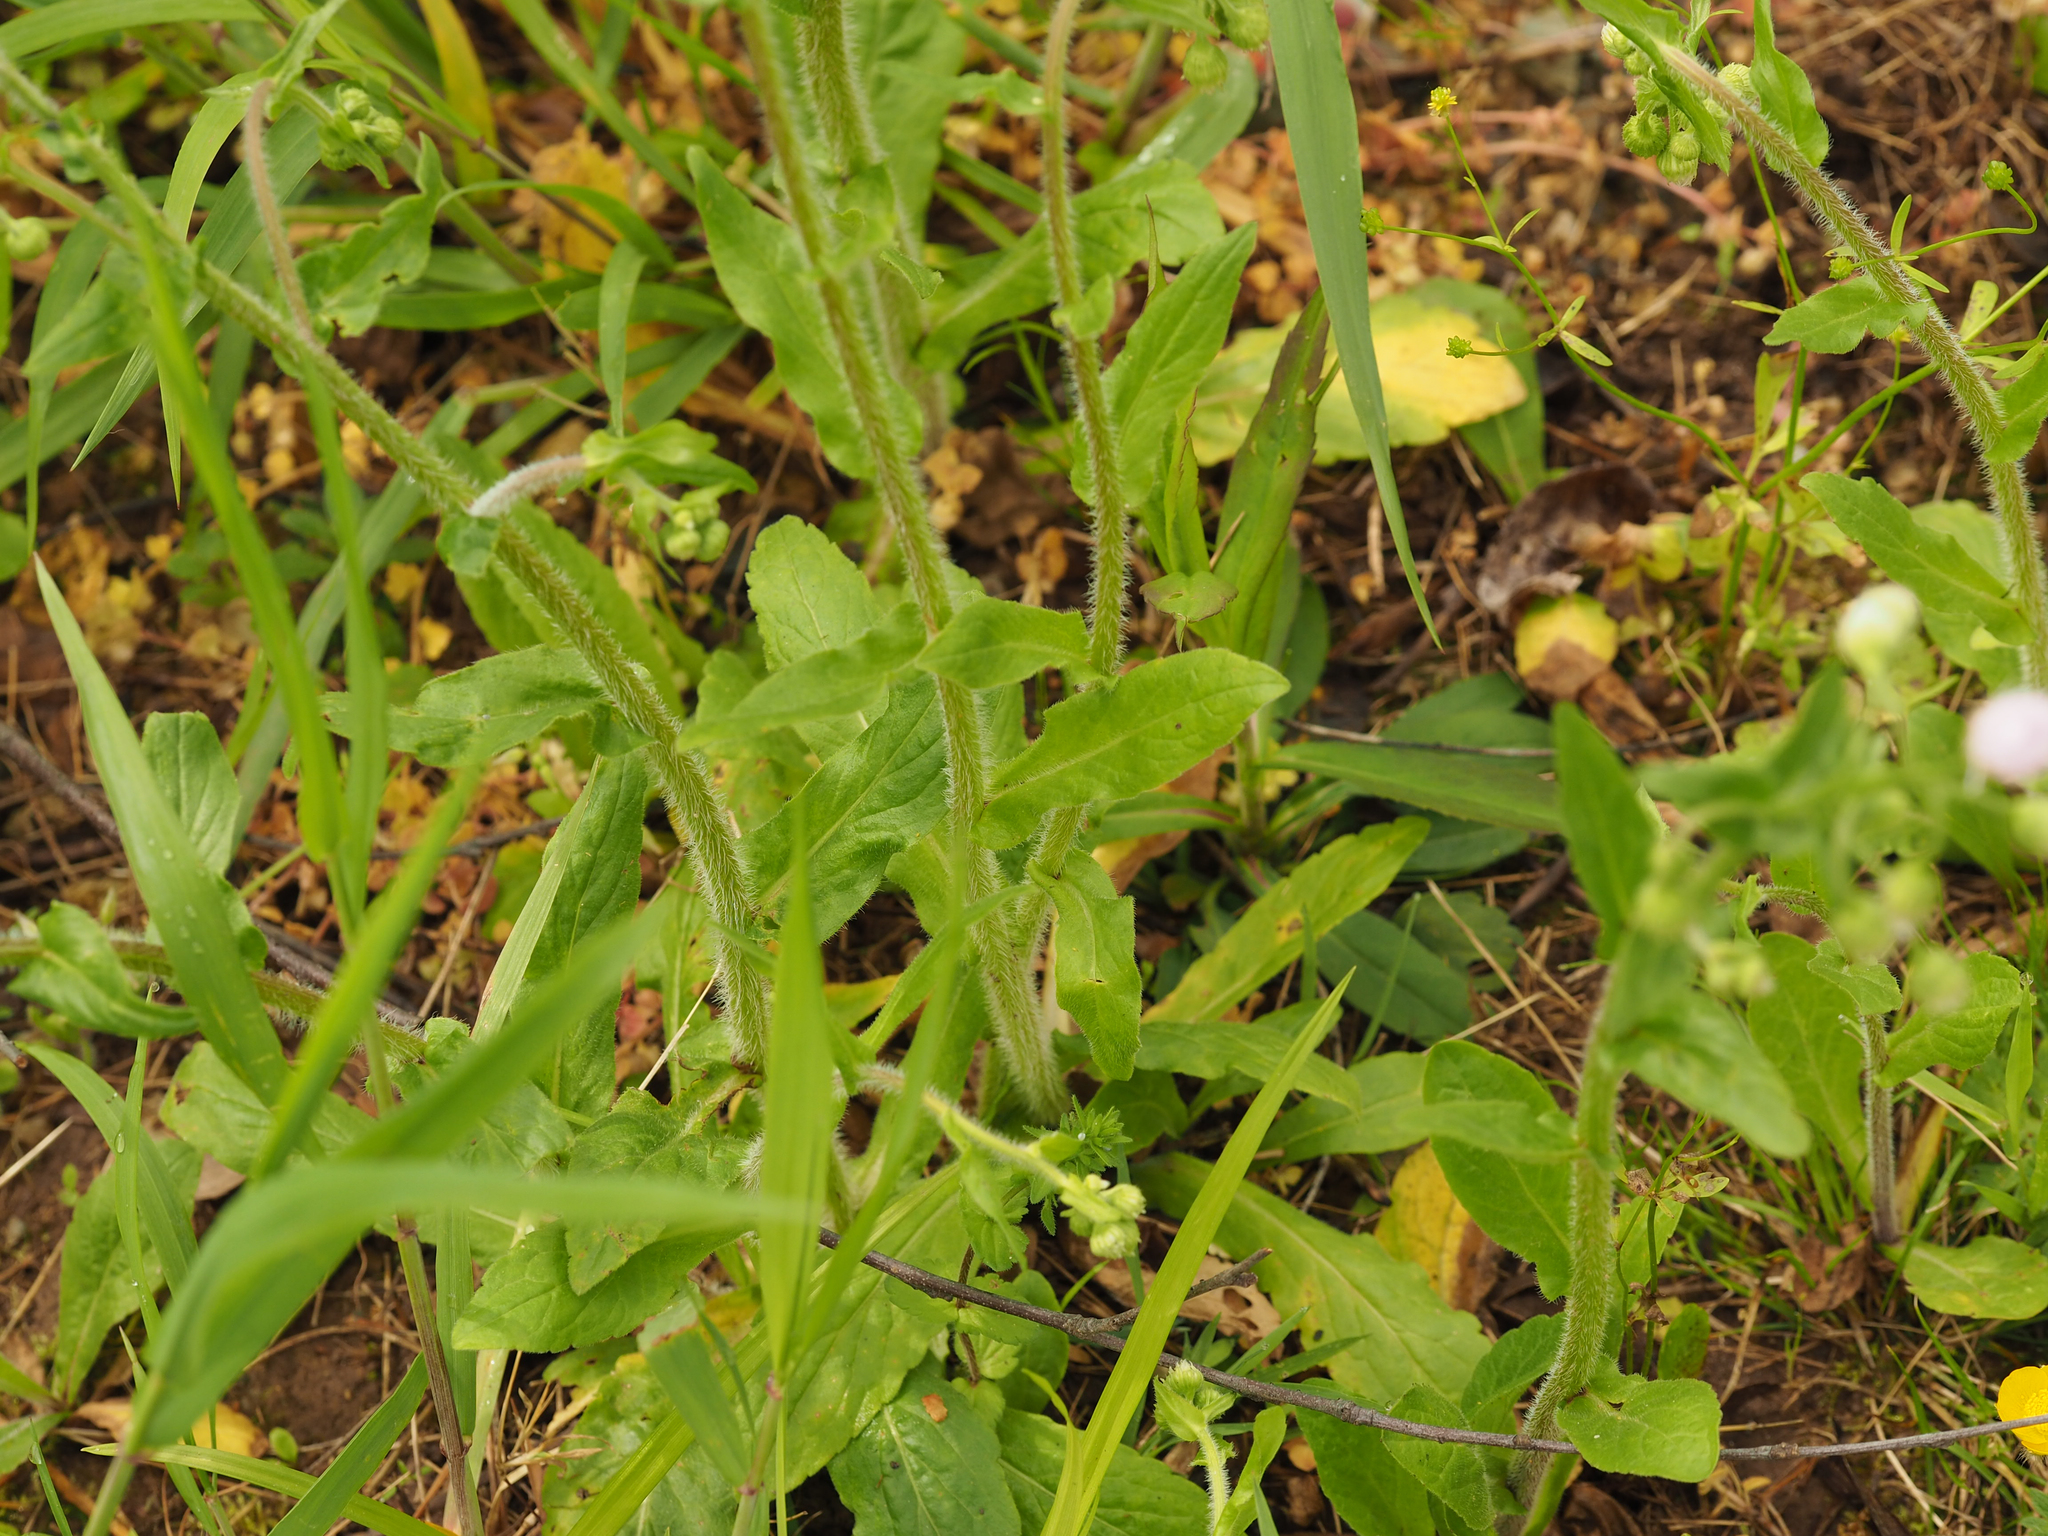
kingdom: Plantae
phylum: Tracheophyta
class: Magnoliopsida
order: Asterales
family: Asteraceae
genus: Erigeron
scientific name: Erigeron philadelphicus
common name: Robin's-plantain
